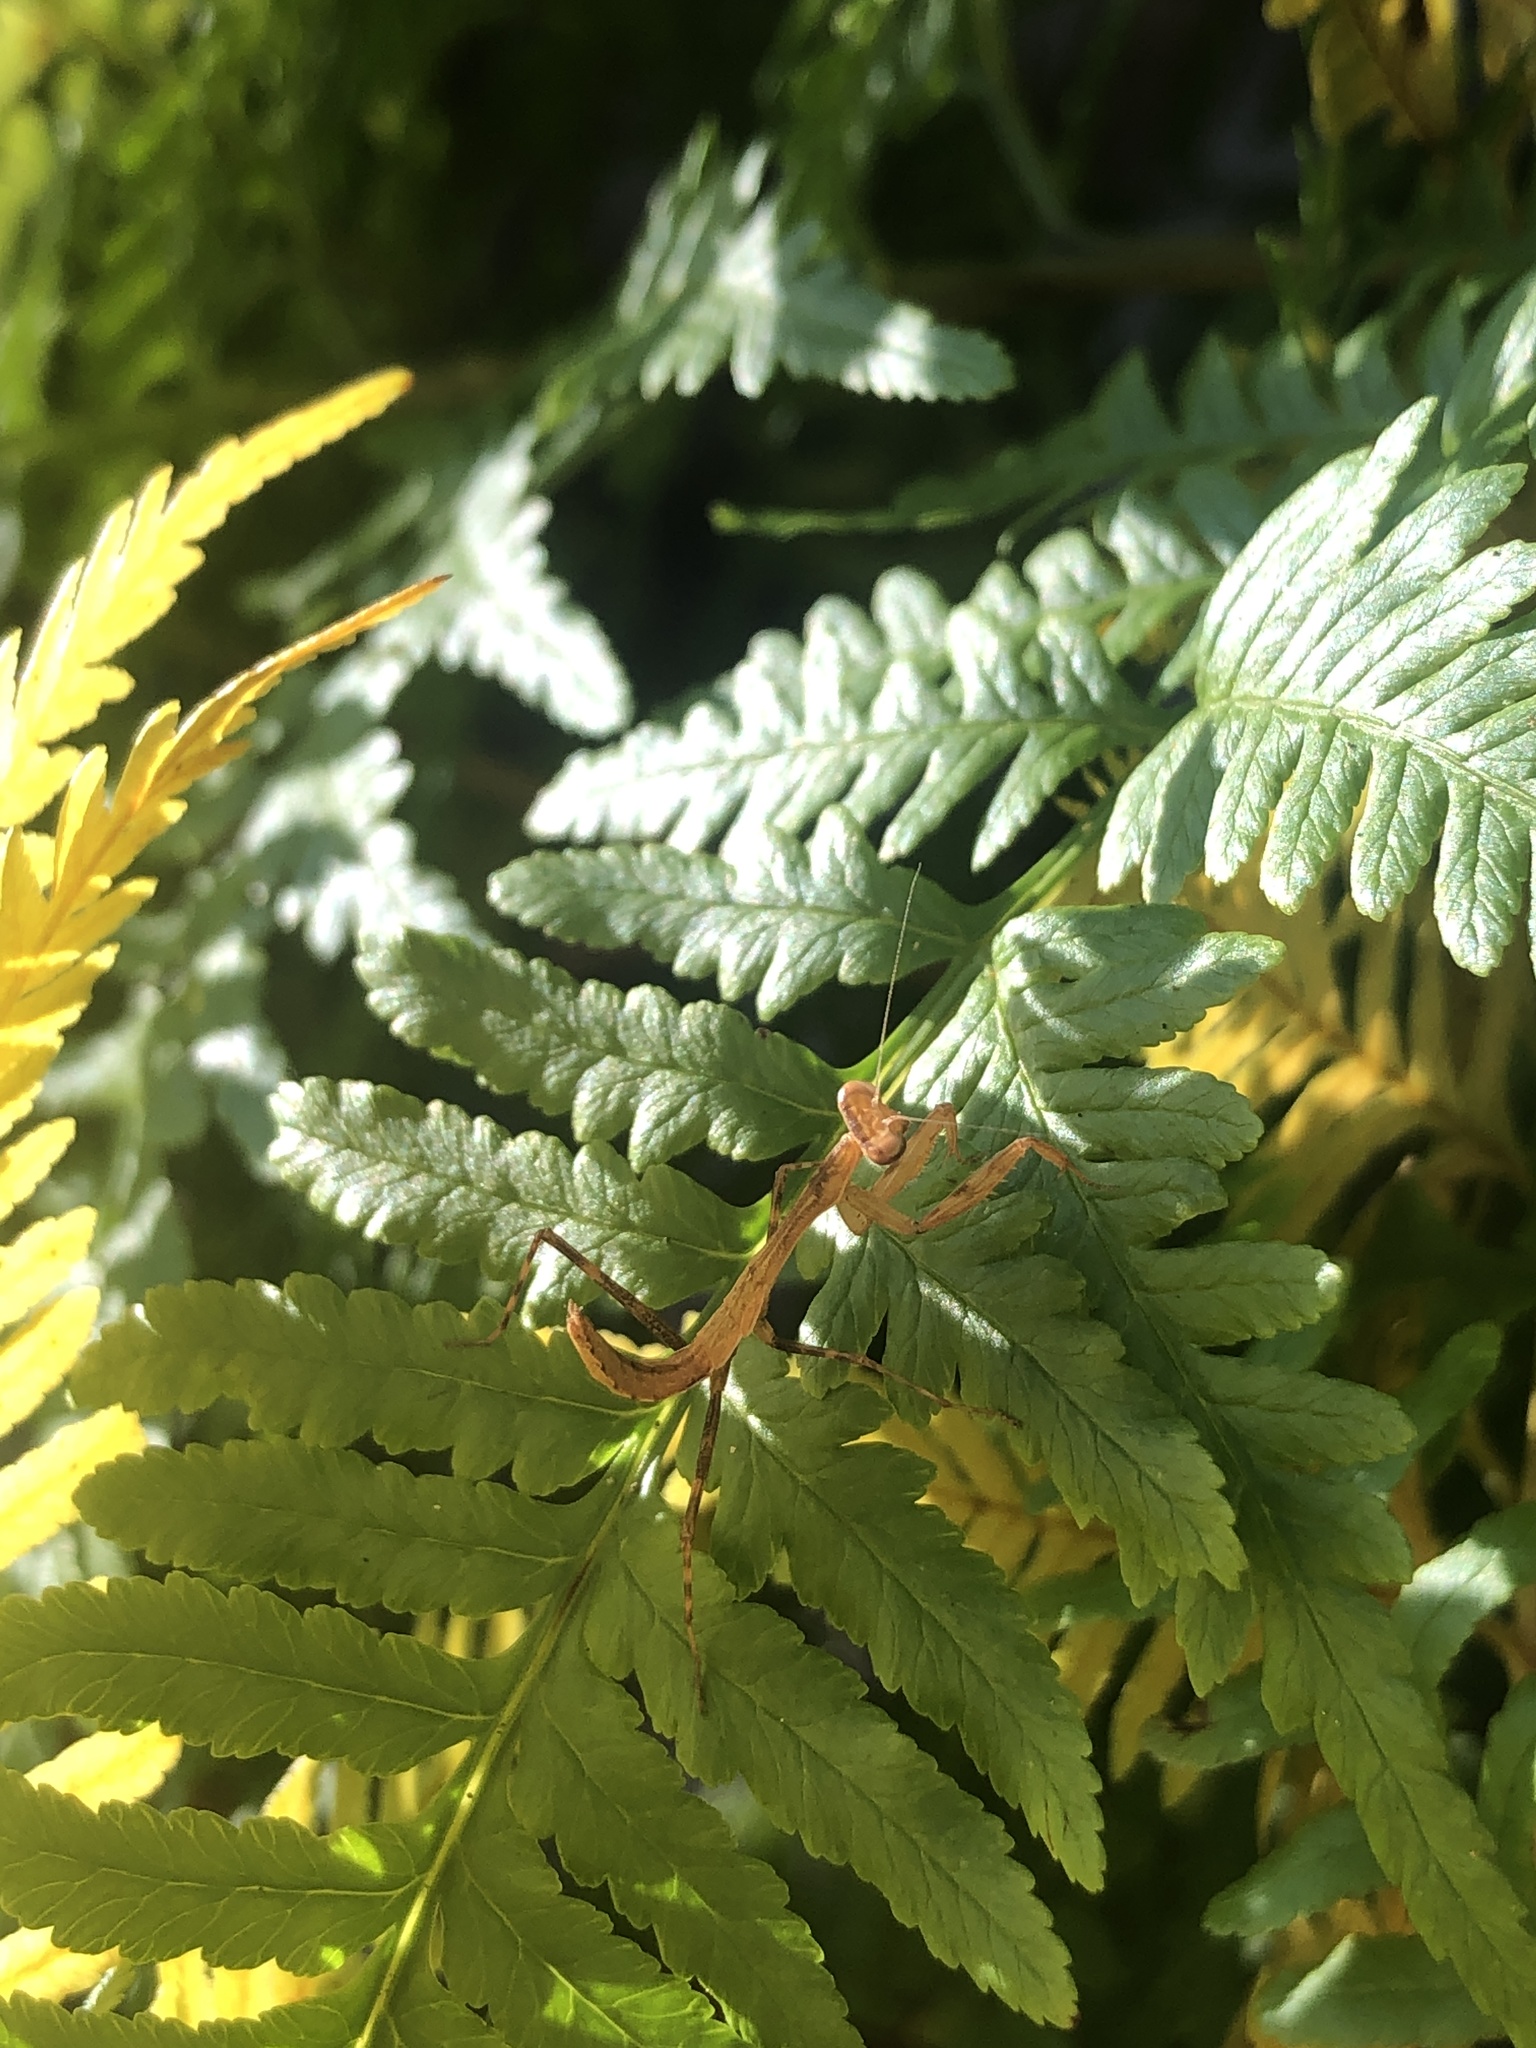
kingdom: Animalia
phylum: Arthropoda
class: Insecta
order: Mantodea
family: Miomantidae
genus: Miomantis
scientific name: Miomantis caffra
